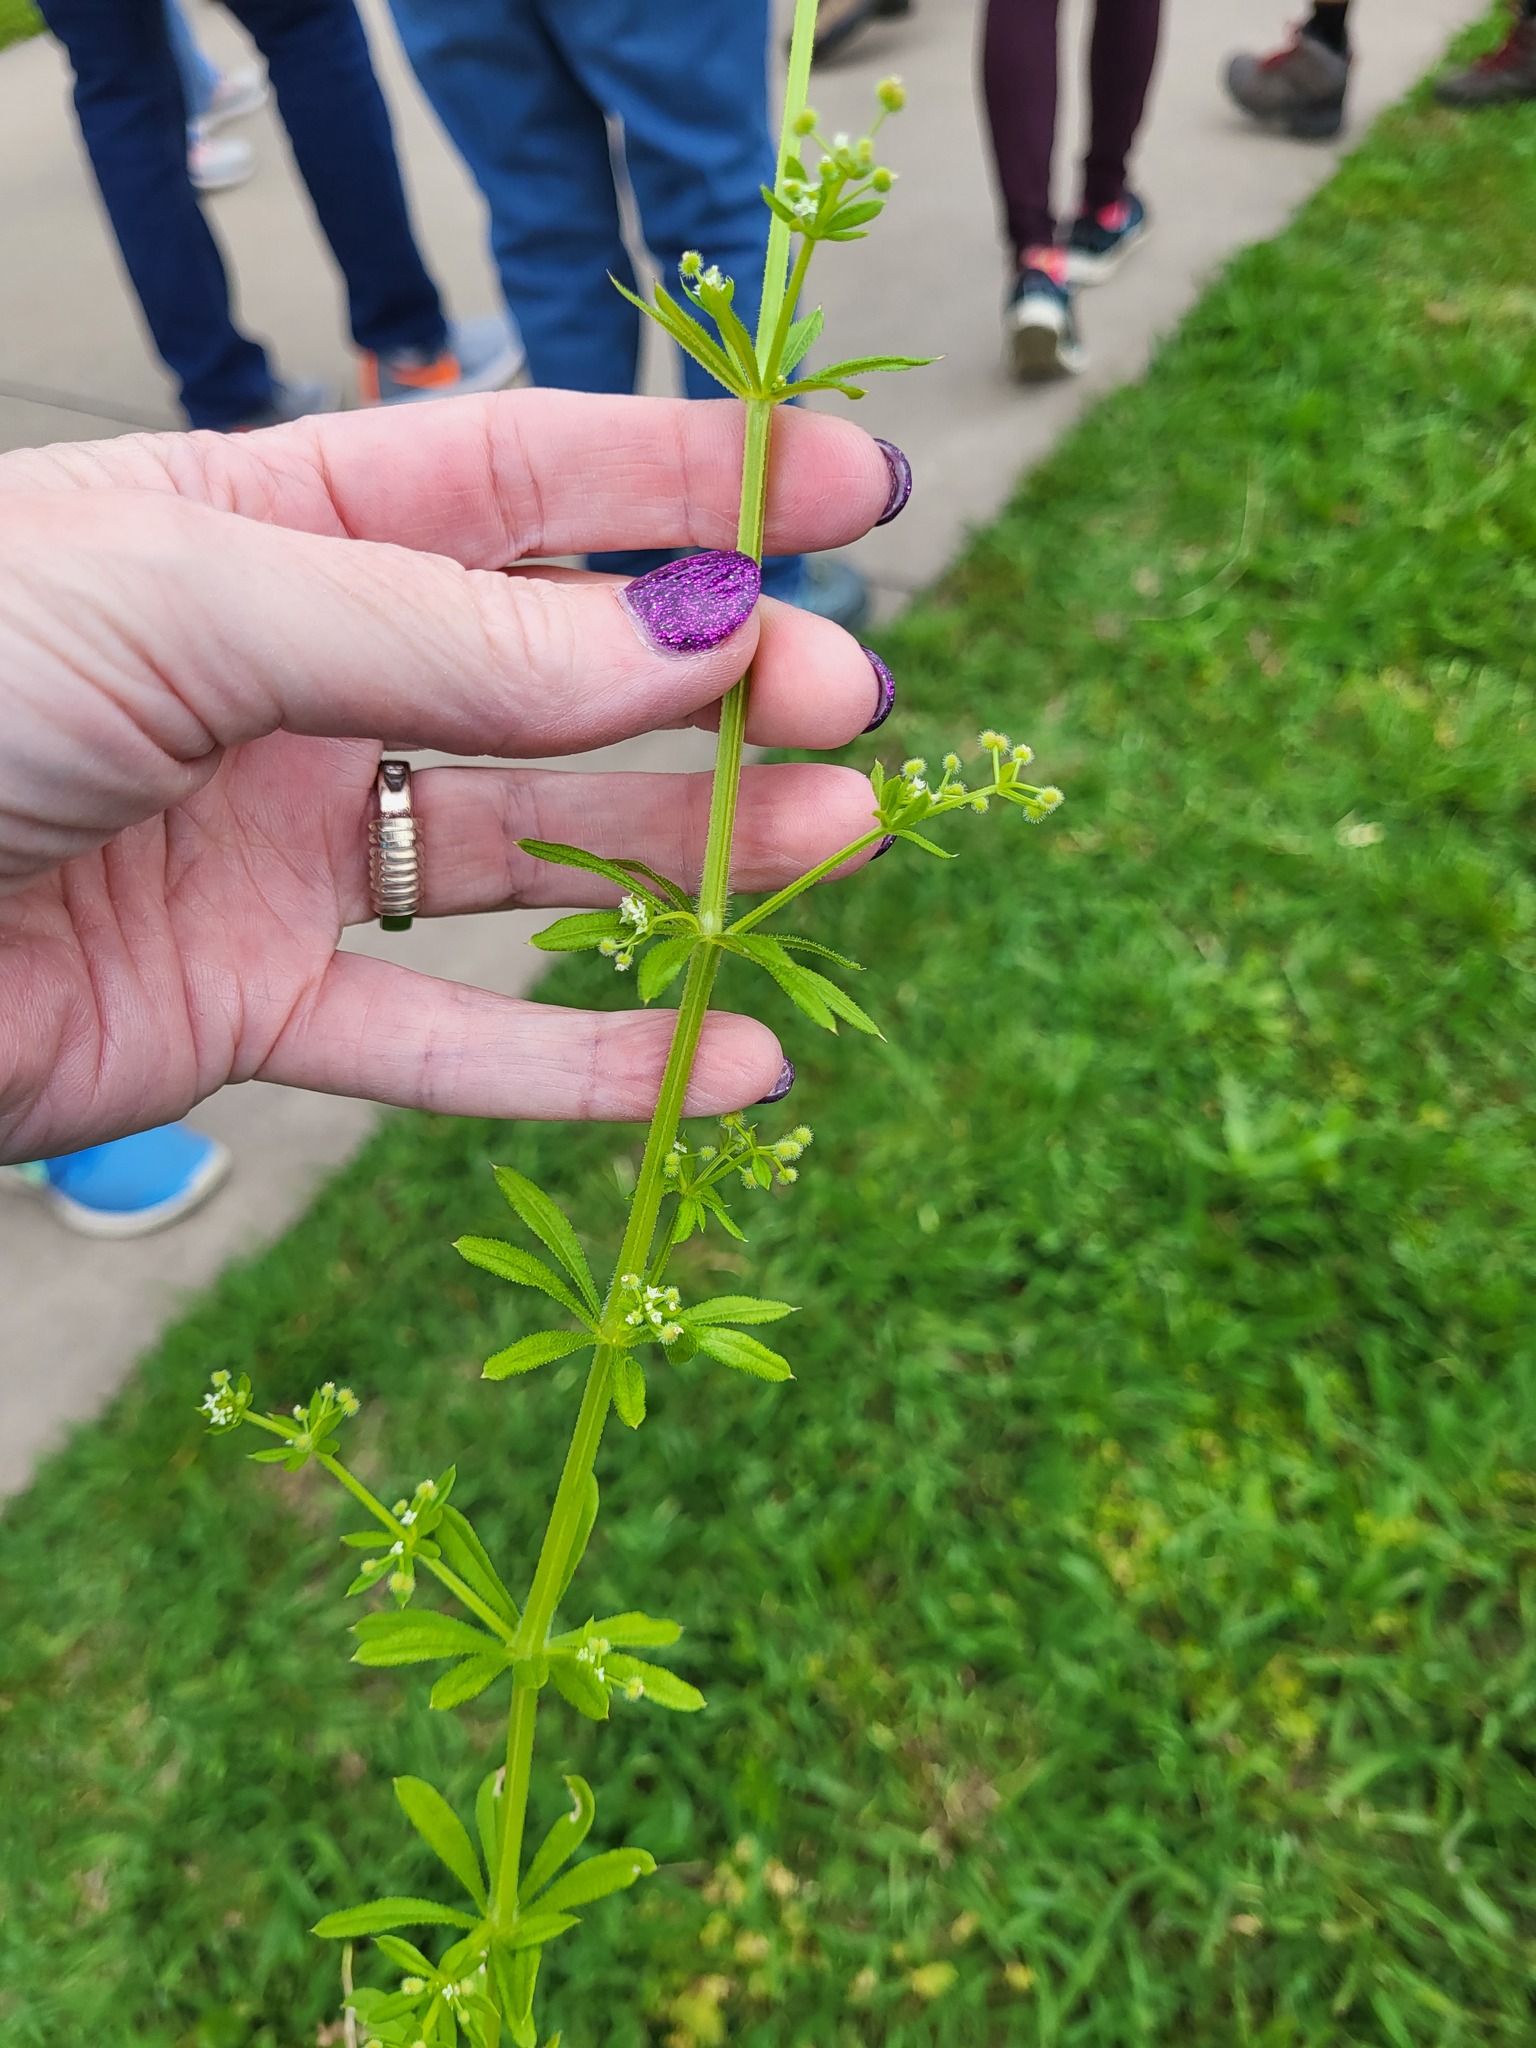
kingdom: Plantae
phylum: Tracheophyta
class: Magnoliopsida
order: Gentianales
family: Rubiaceae
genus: Galium
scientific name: Galium aparine
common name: Cleavers
